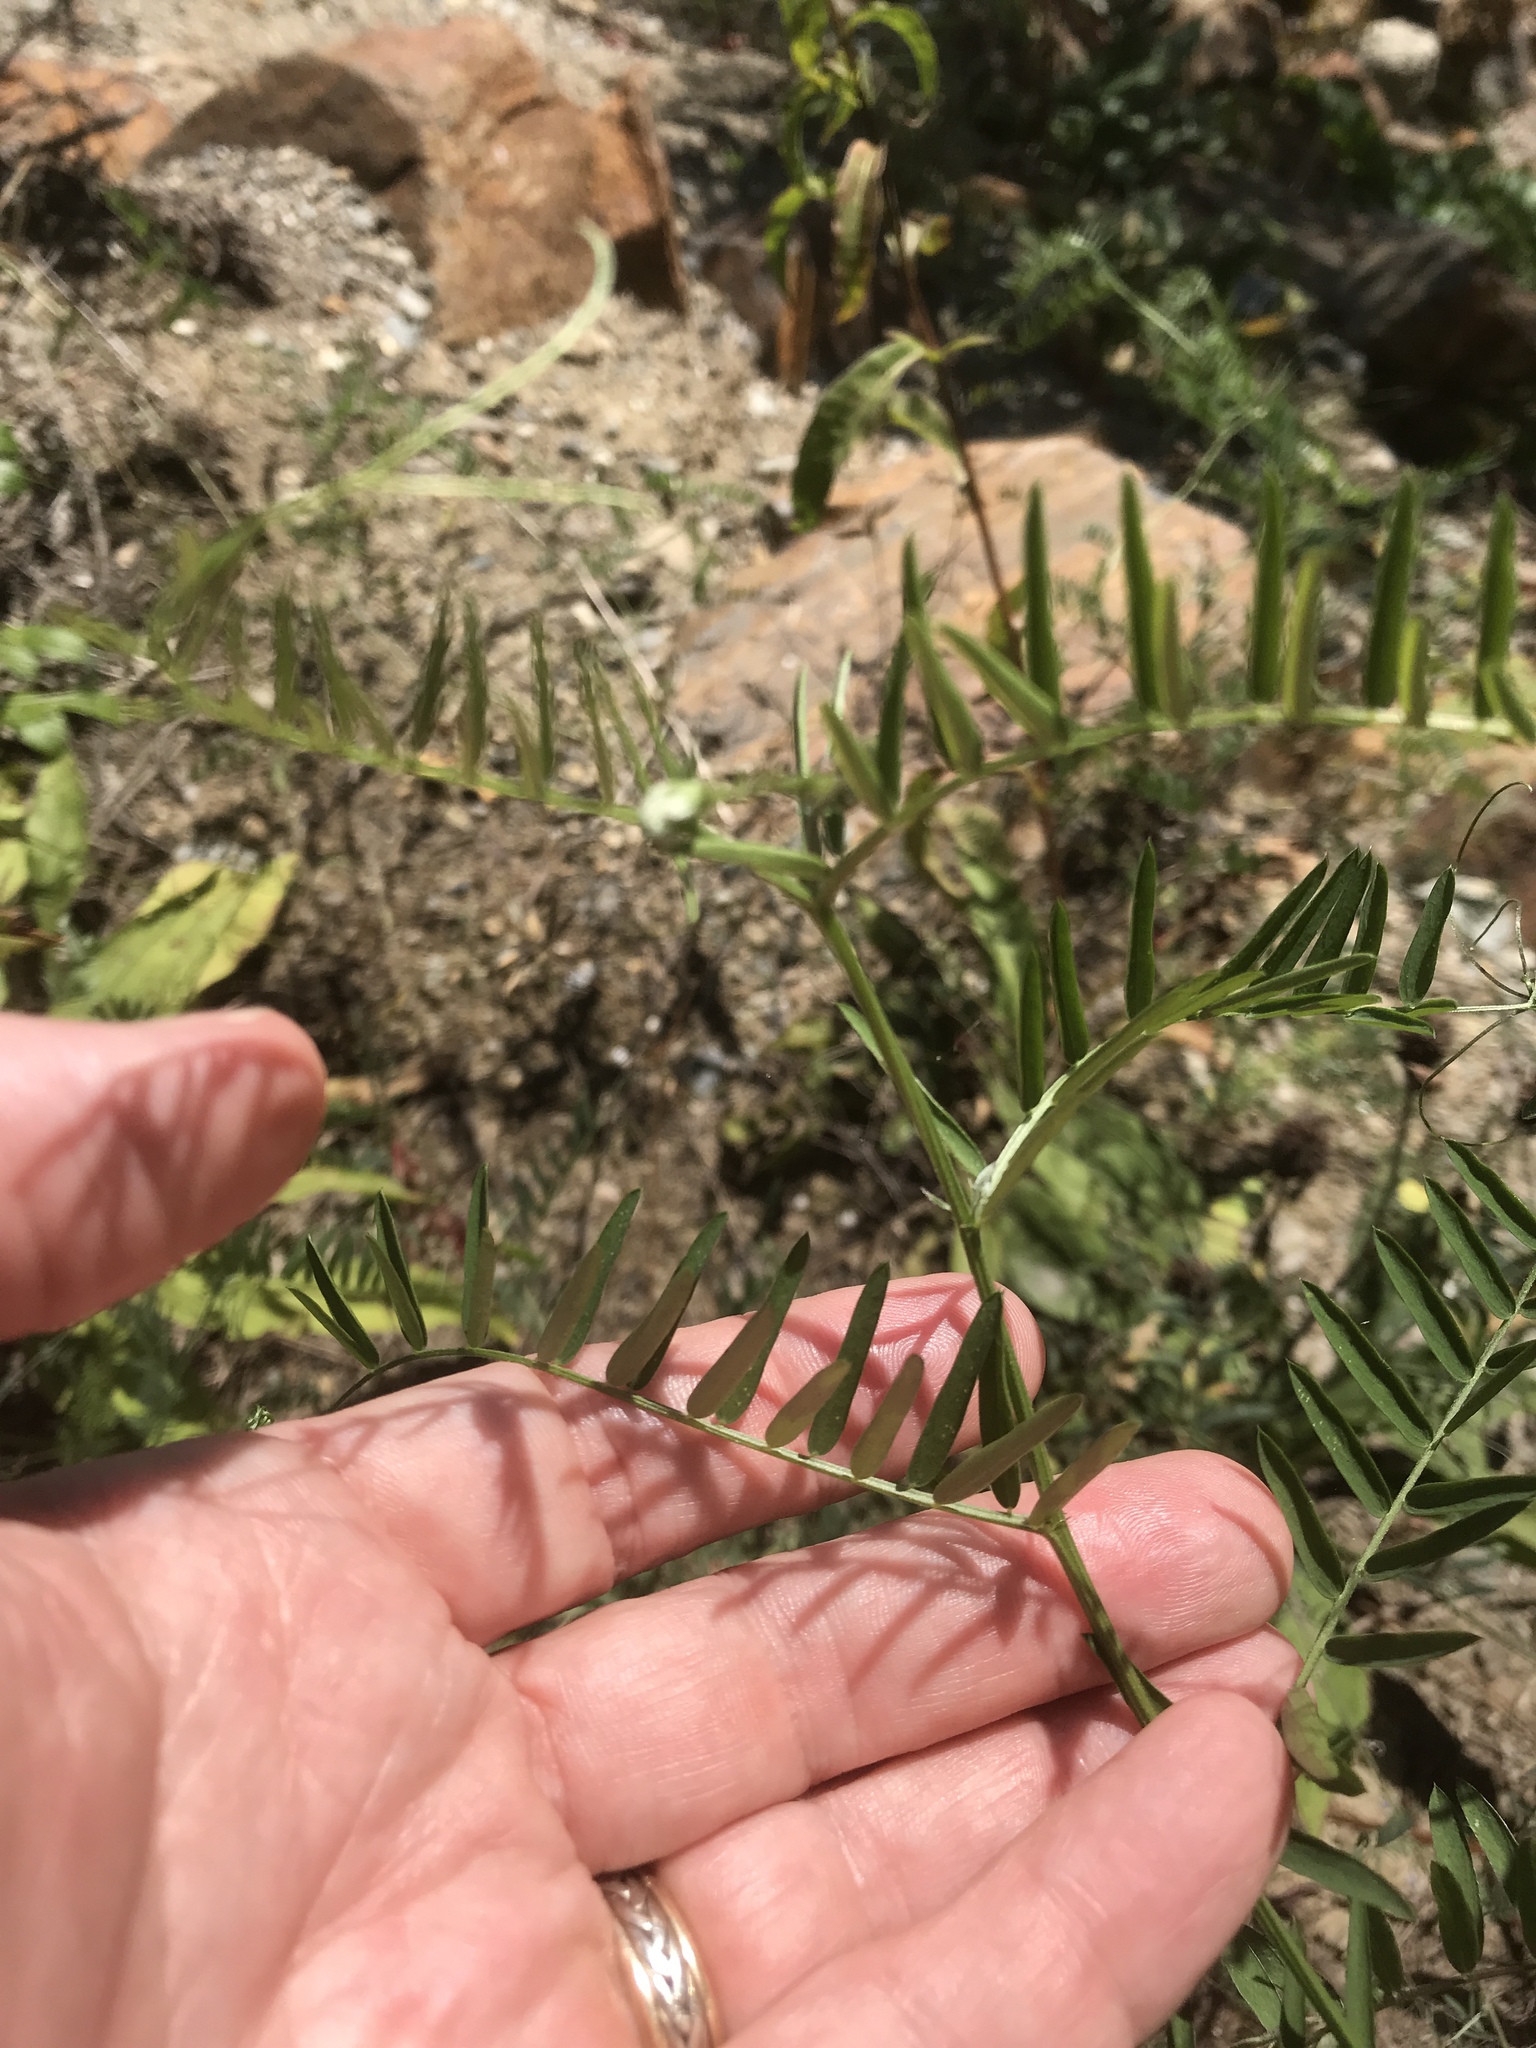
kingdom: Plantae
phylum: Tracheophyta
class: Magnoliopsida
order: Fabales
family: Fabaceae
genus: Vicia
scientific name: Vicia cracca
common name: Bird vetch
